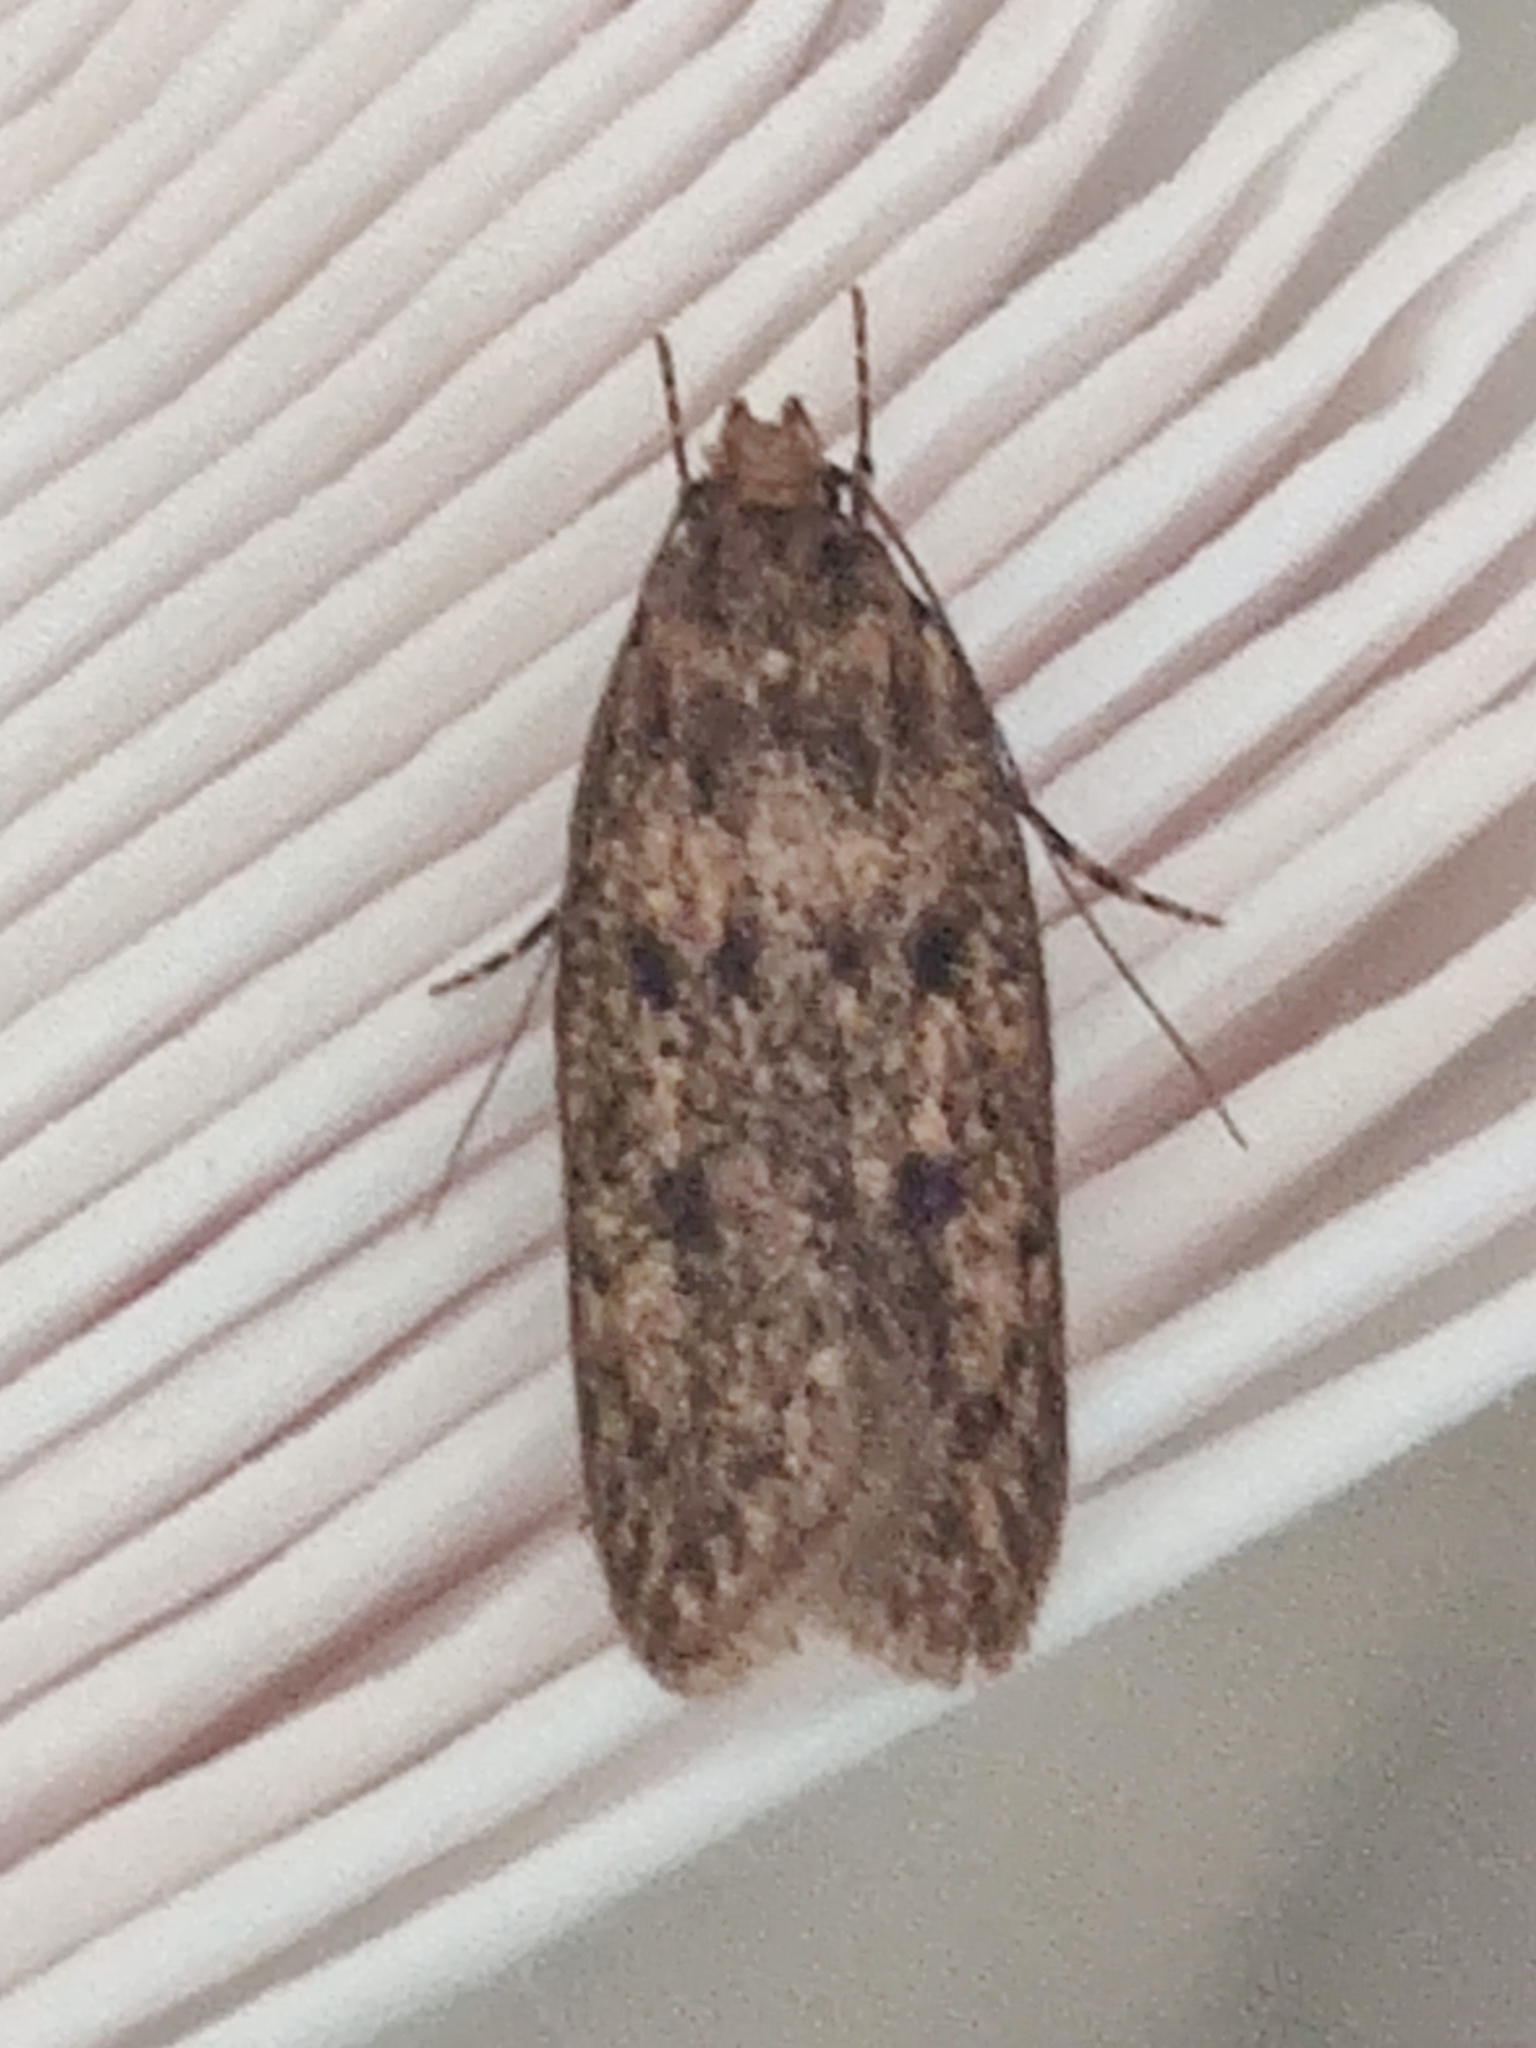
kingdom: Animalia
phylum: Arthropoda
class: Insecta
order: Lepidoptera
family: Oecophoridae
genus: Hofmannophila
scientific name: Hofmannophila pseudospretella
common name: Brown house moth
